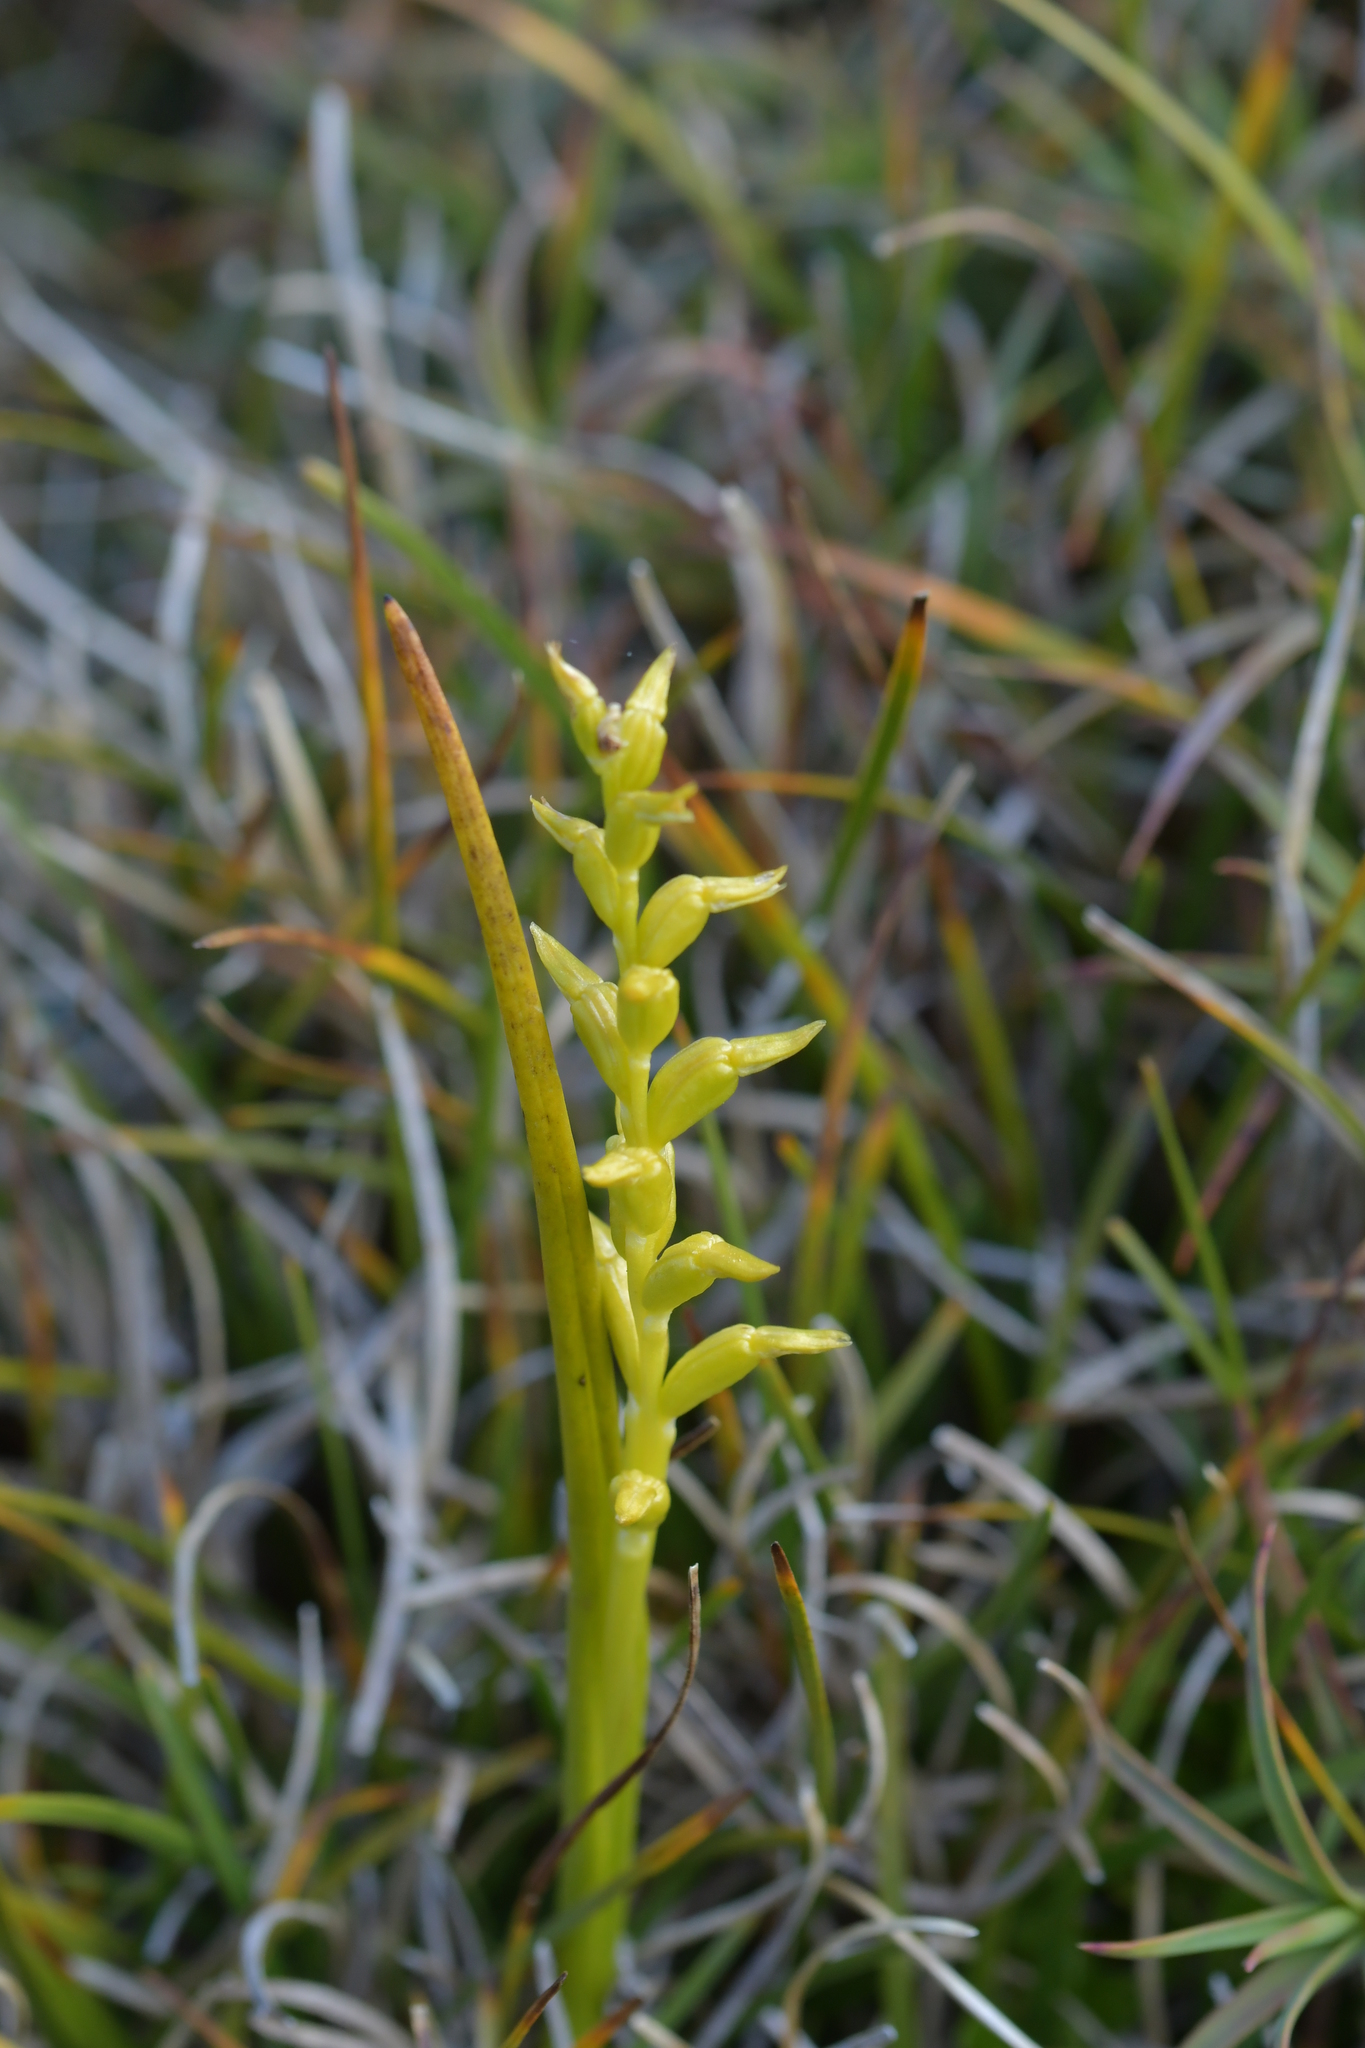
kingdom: Plantae
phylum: Tracheophyta
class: Liliopsida
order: Asparagales
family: Orchidaceae
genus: Prasophyllum
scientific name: Prasophyllum colensoi
